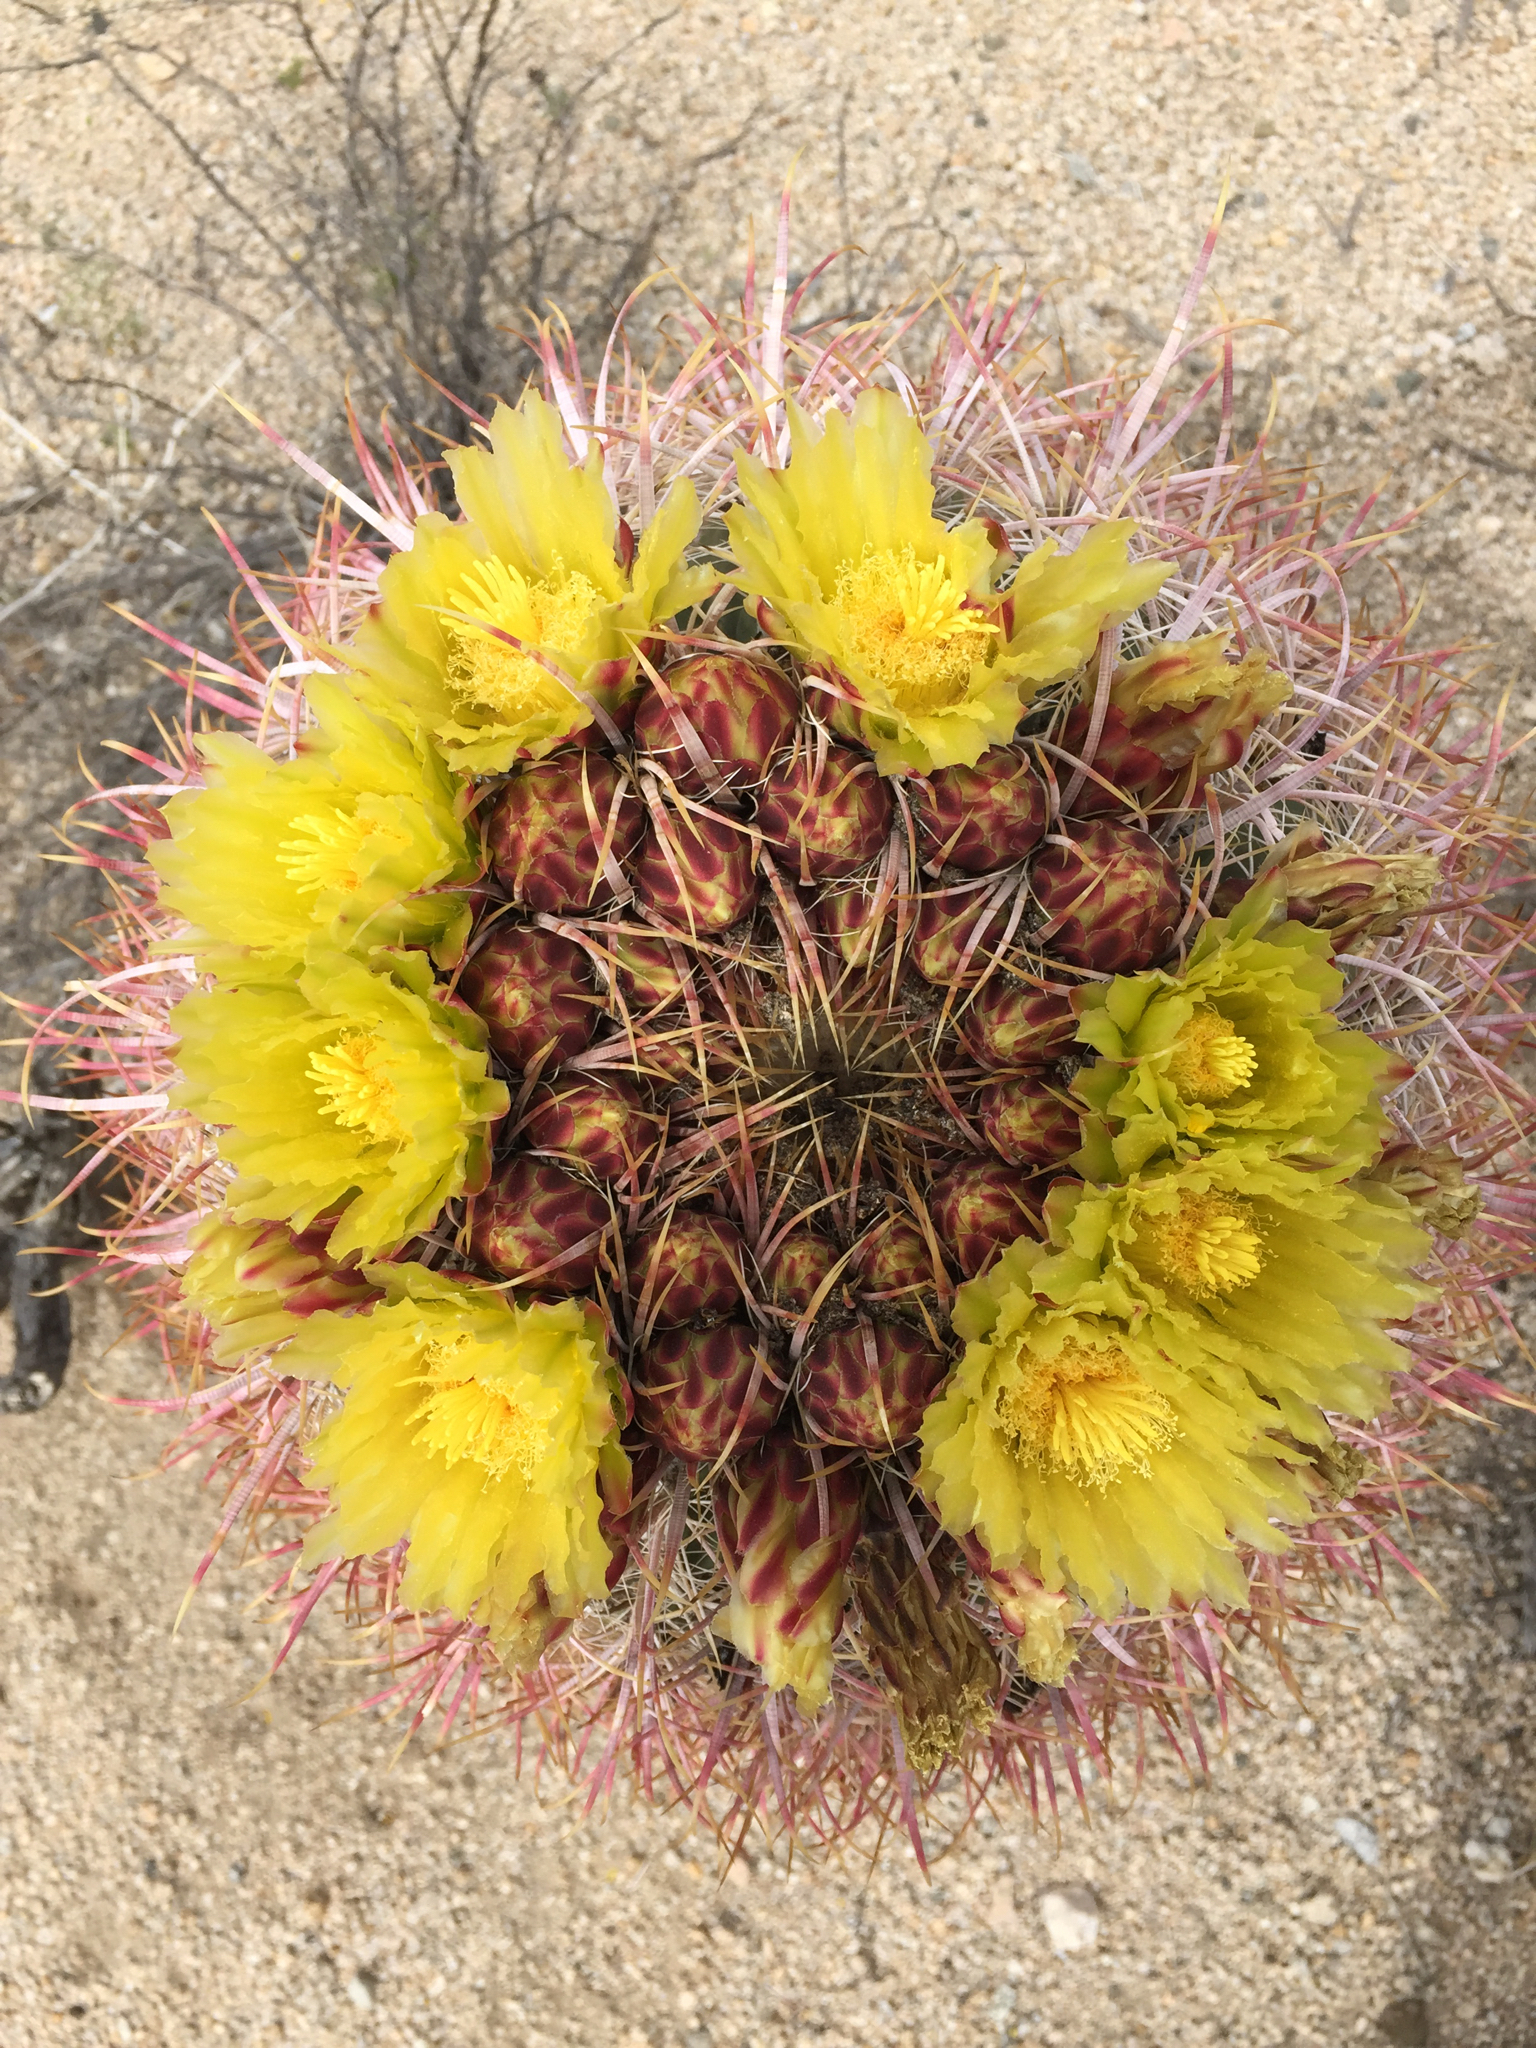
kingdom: Plantae
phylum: Tracheophyta
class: Magnoliopsida
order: Caryophyllales
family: Cactaceae
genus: Ferocactus
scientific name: Ferocactus cylindraceus
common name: California barrel cactus
